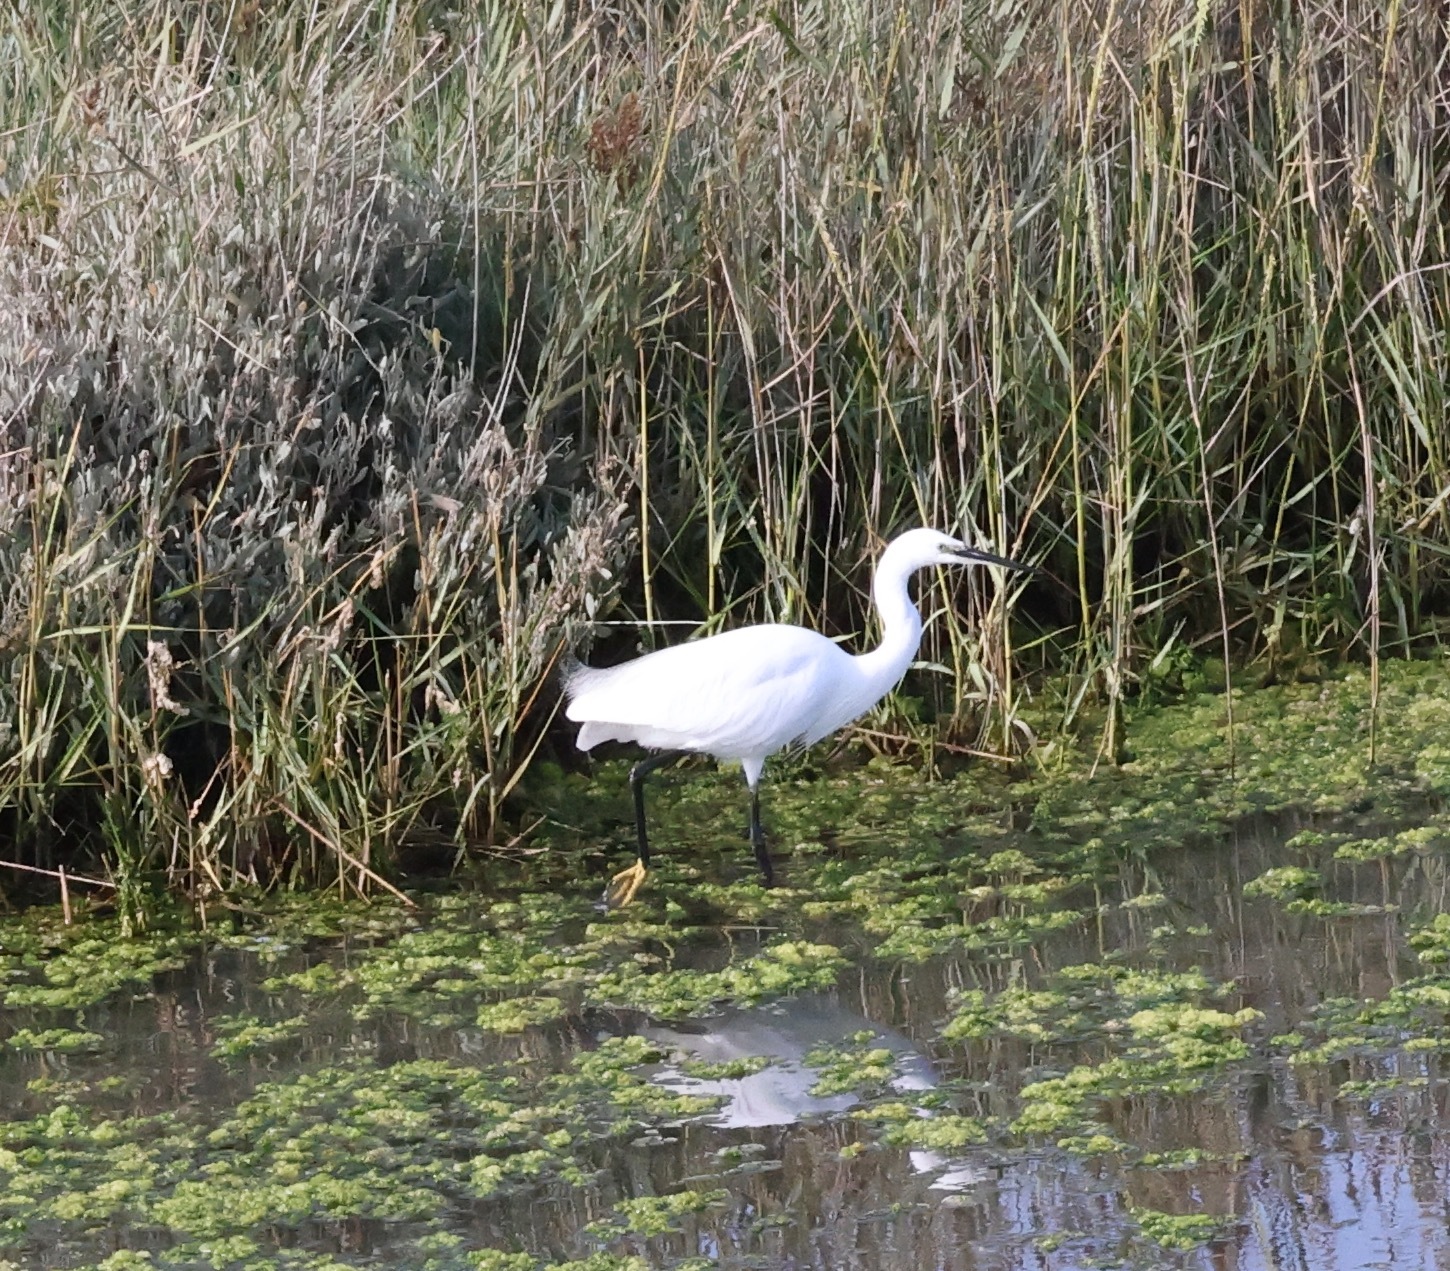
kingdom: Animalia
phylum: Chordata
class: Aves
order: Pelecaniformes
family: Ardeidae
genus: Egretta
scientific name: Egretta garzetta
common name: Little egret
